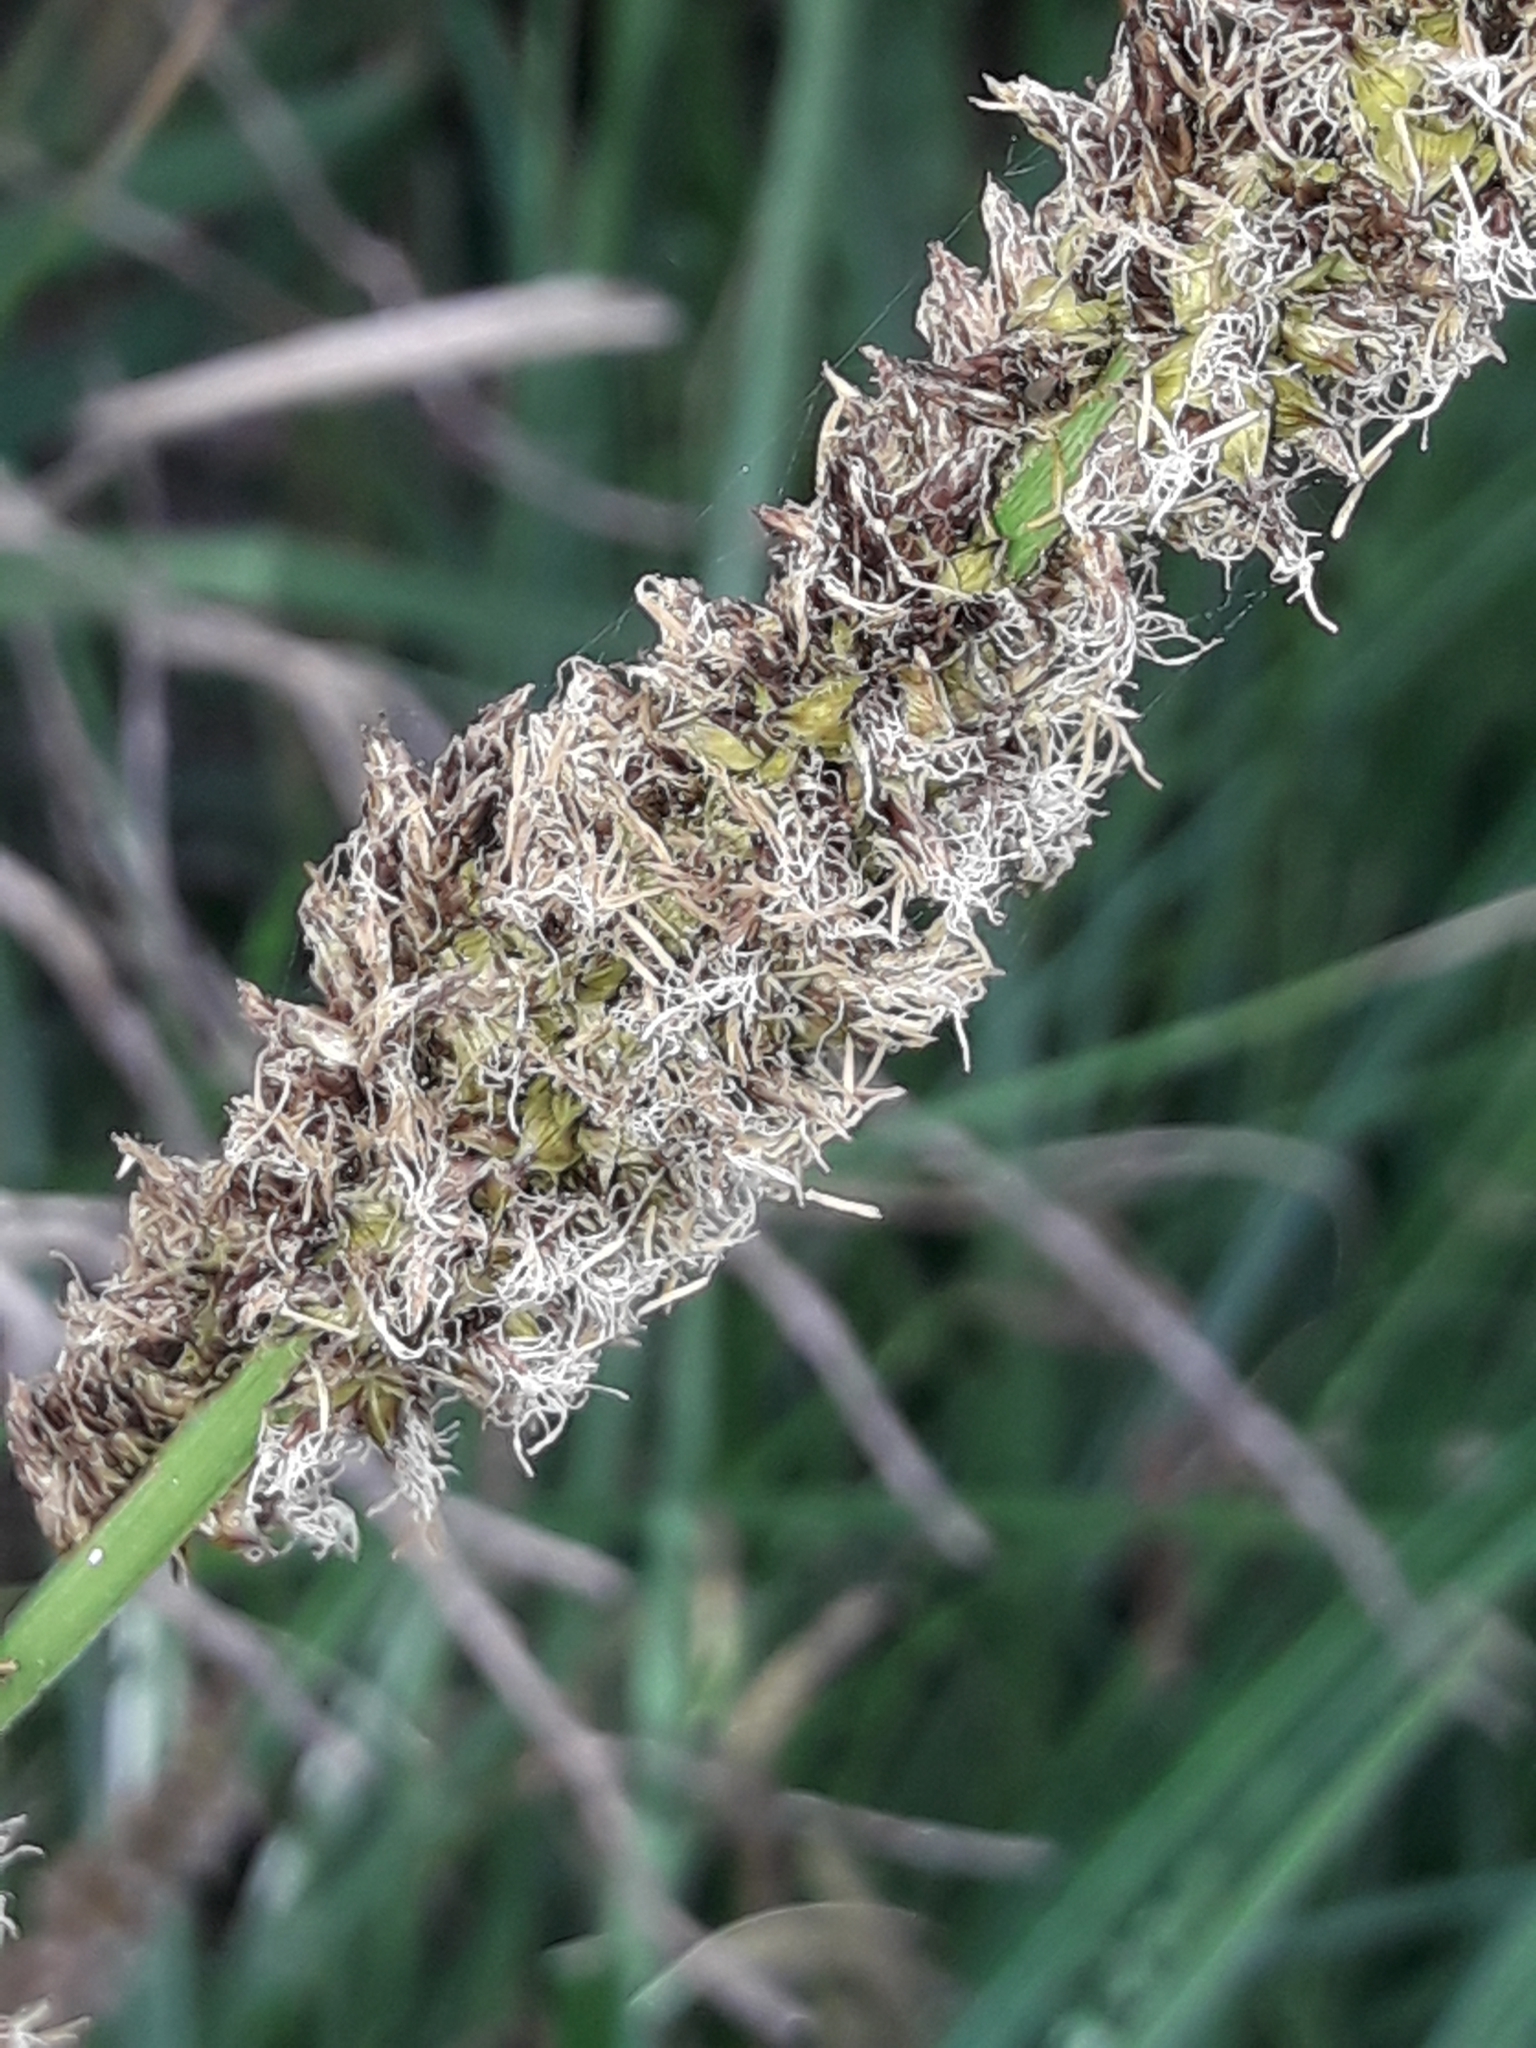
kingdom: Plantae
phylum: Tracheophyta
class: Liliopsida
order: Poales
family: Cyperaceae
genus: Carex
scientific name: Carex appressa
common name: Tussock sedge
